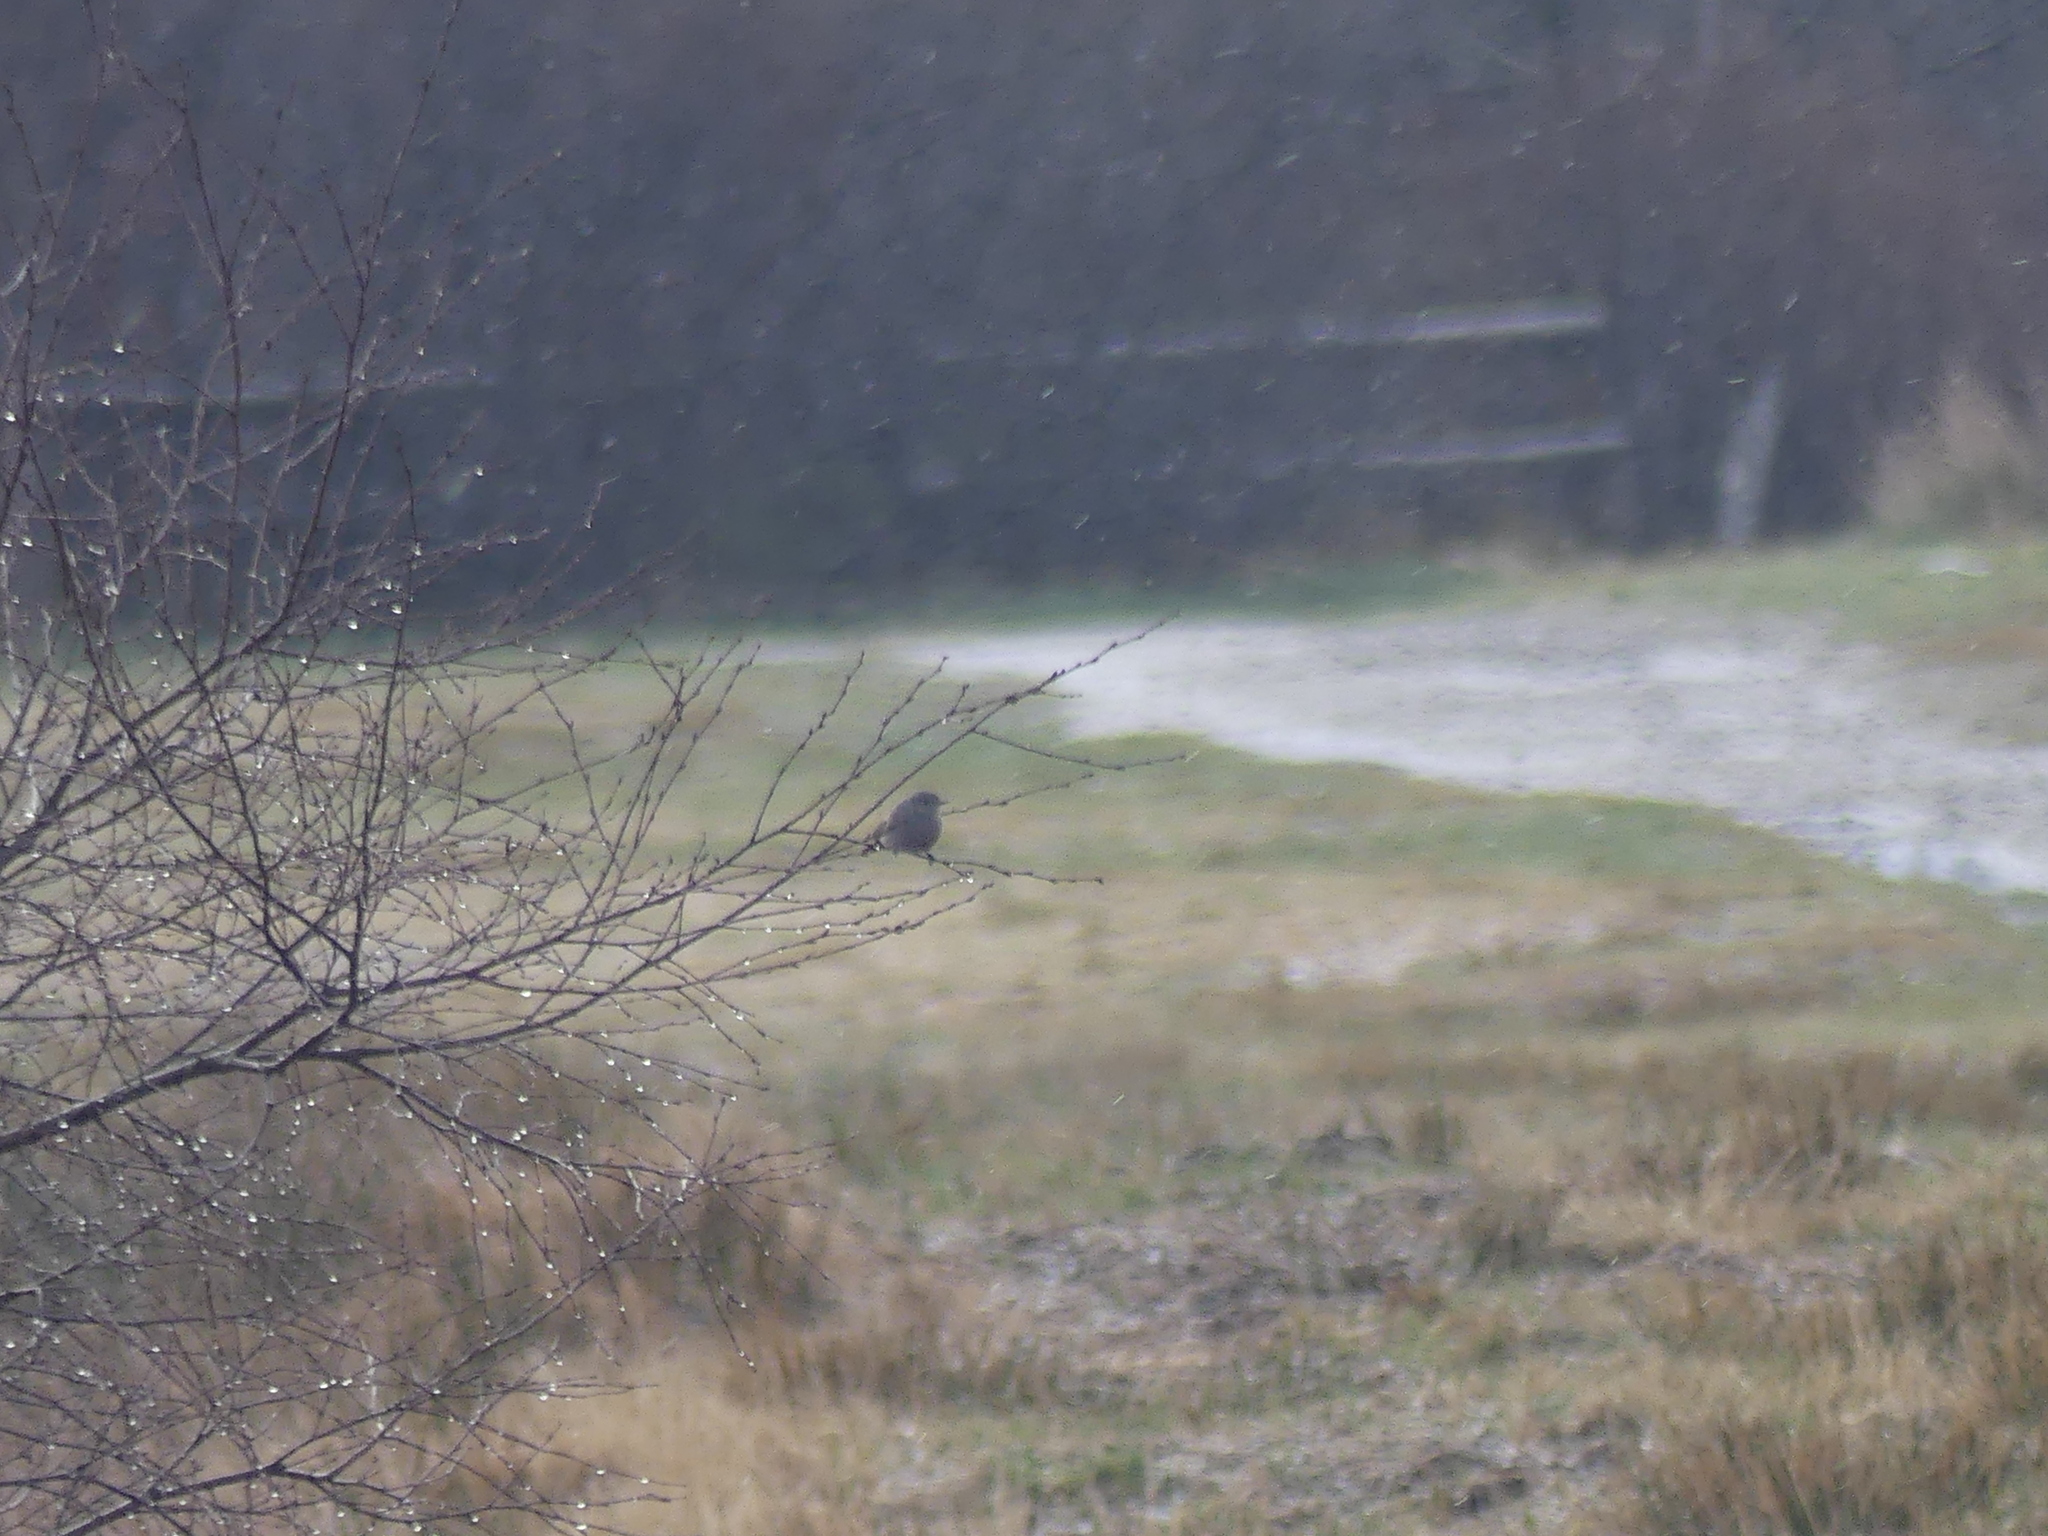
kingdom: Animalia
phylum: Chordata
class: Aves
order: Passeriformes
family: Muscicapidae
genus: Phoenicurus
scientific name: Phoenicurus ochruros
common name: Black redstart
